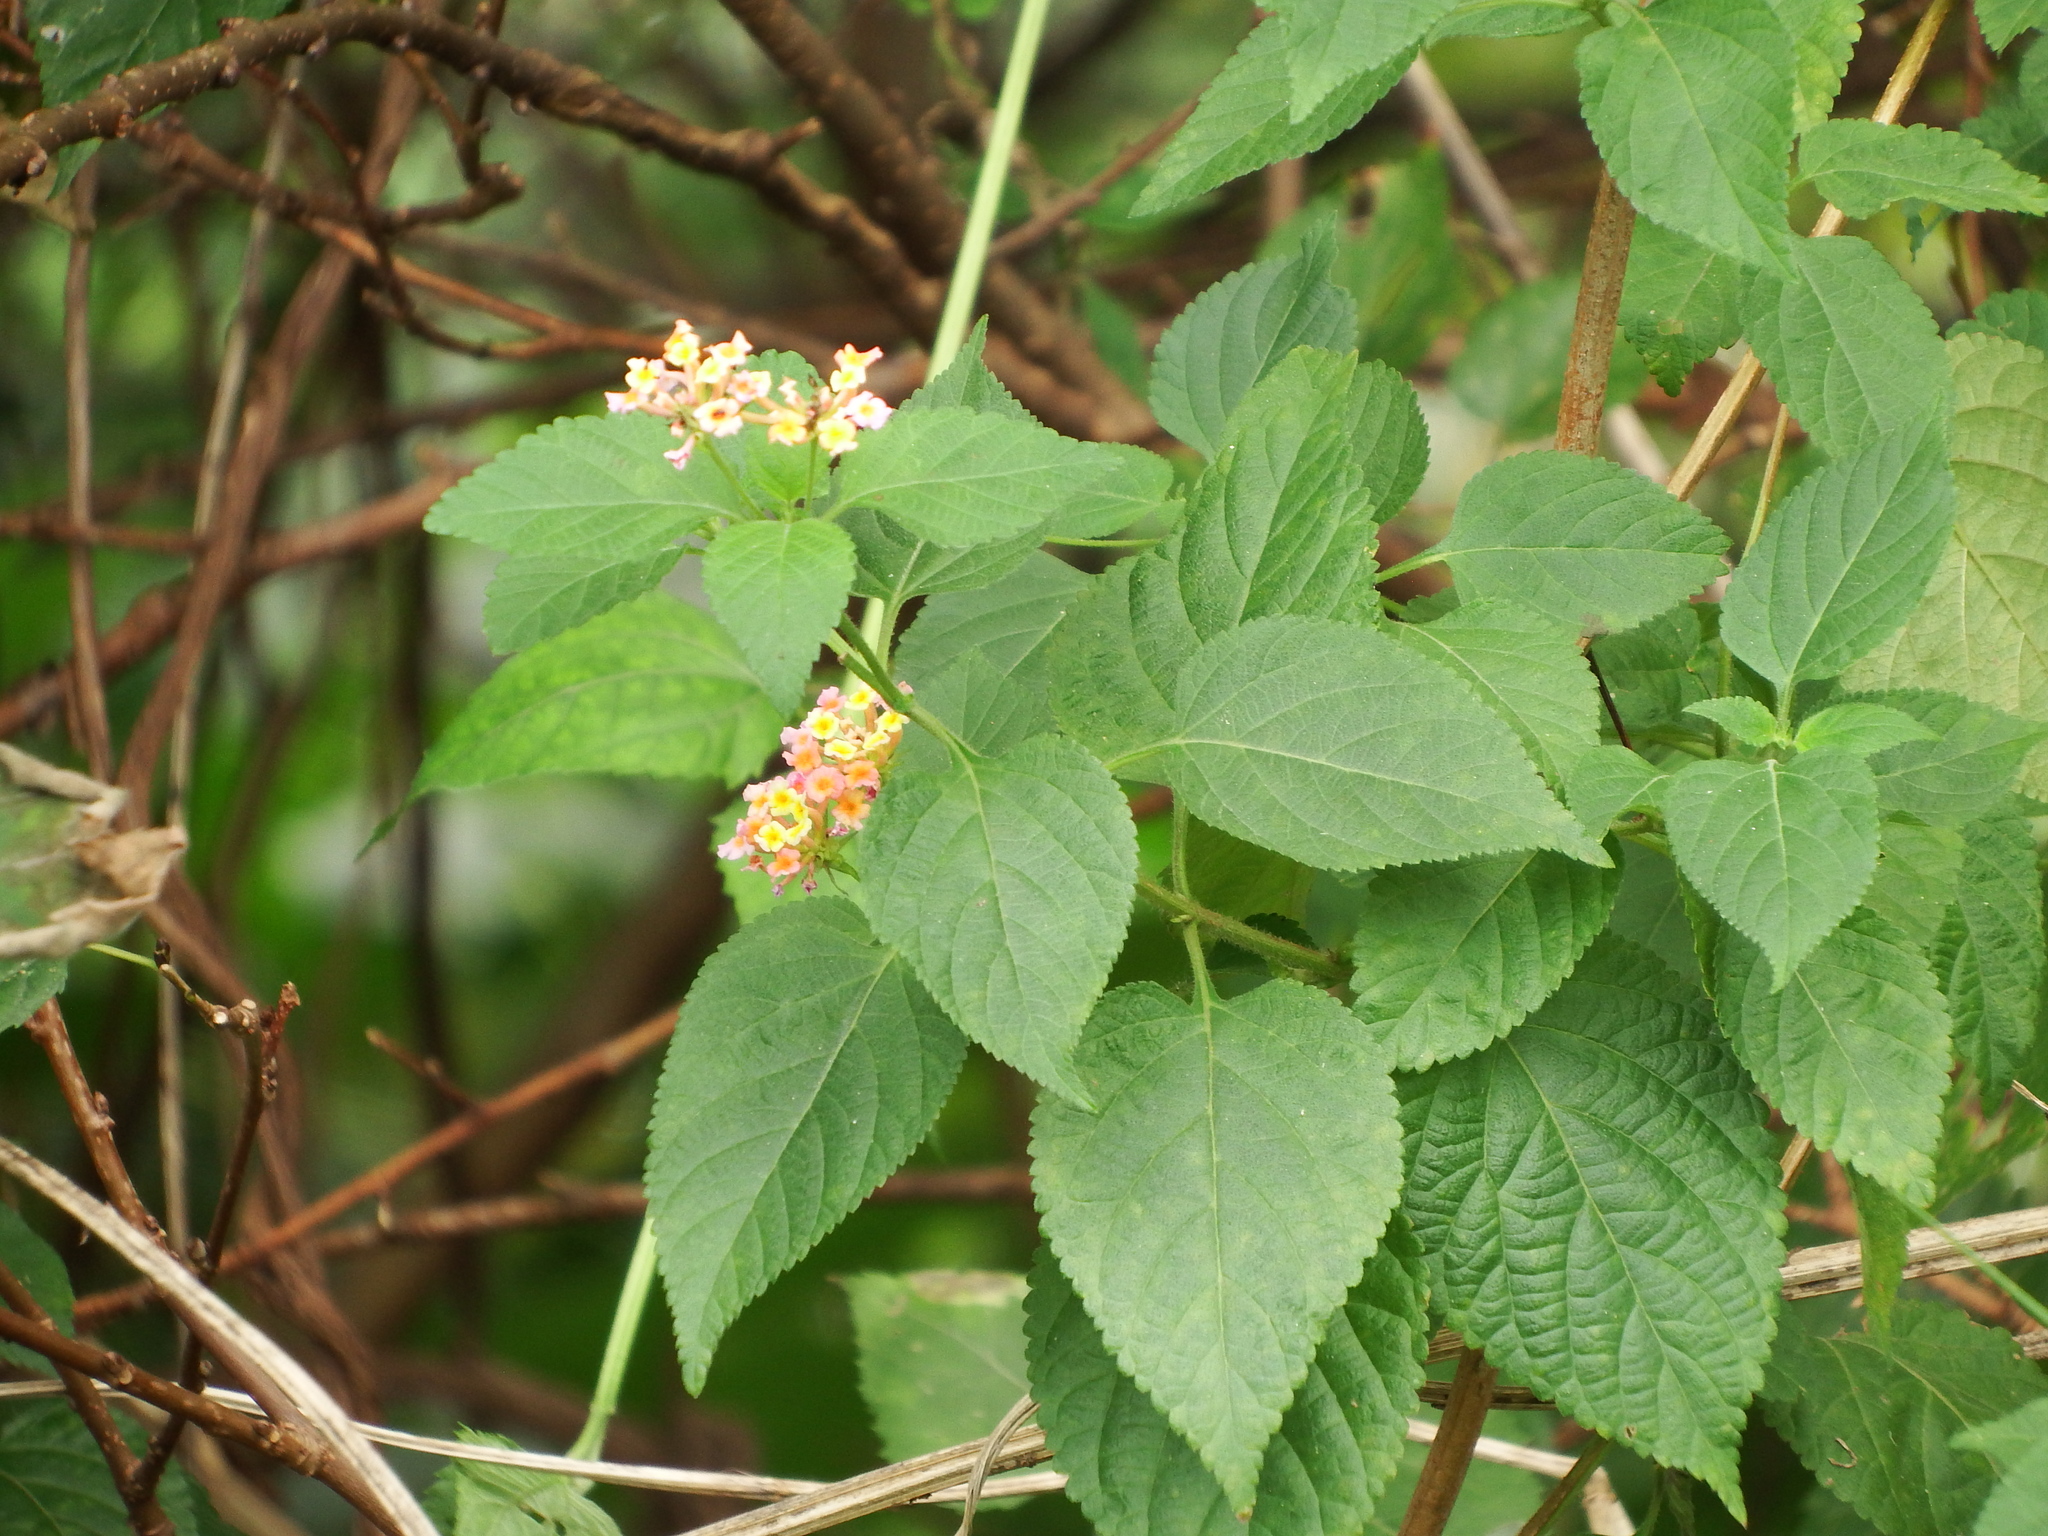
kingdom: Plantae
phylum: Tracheophyta
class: Magnoliopsida
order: Lamiales
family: Verbenaceae
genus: Lantana
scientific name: Lantana camara
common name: Lantana
